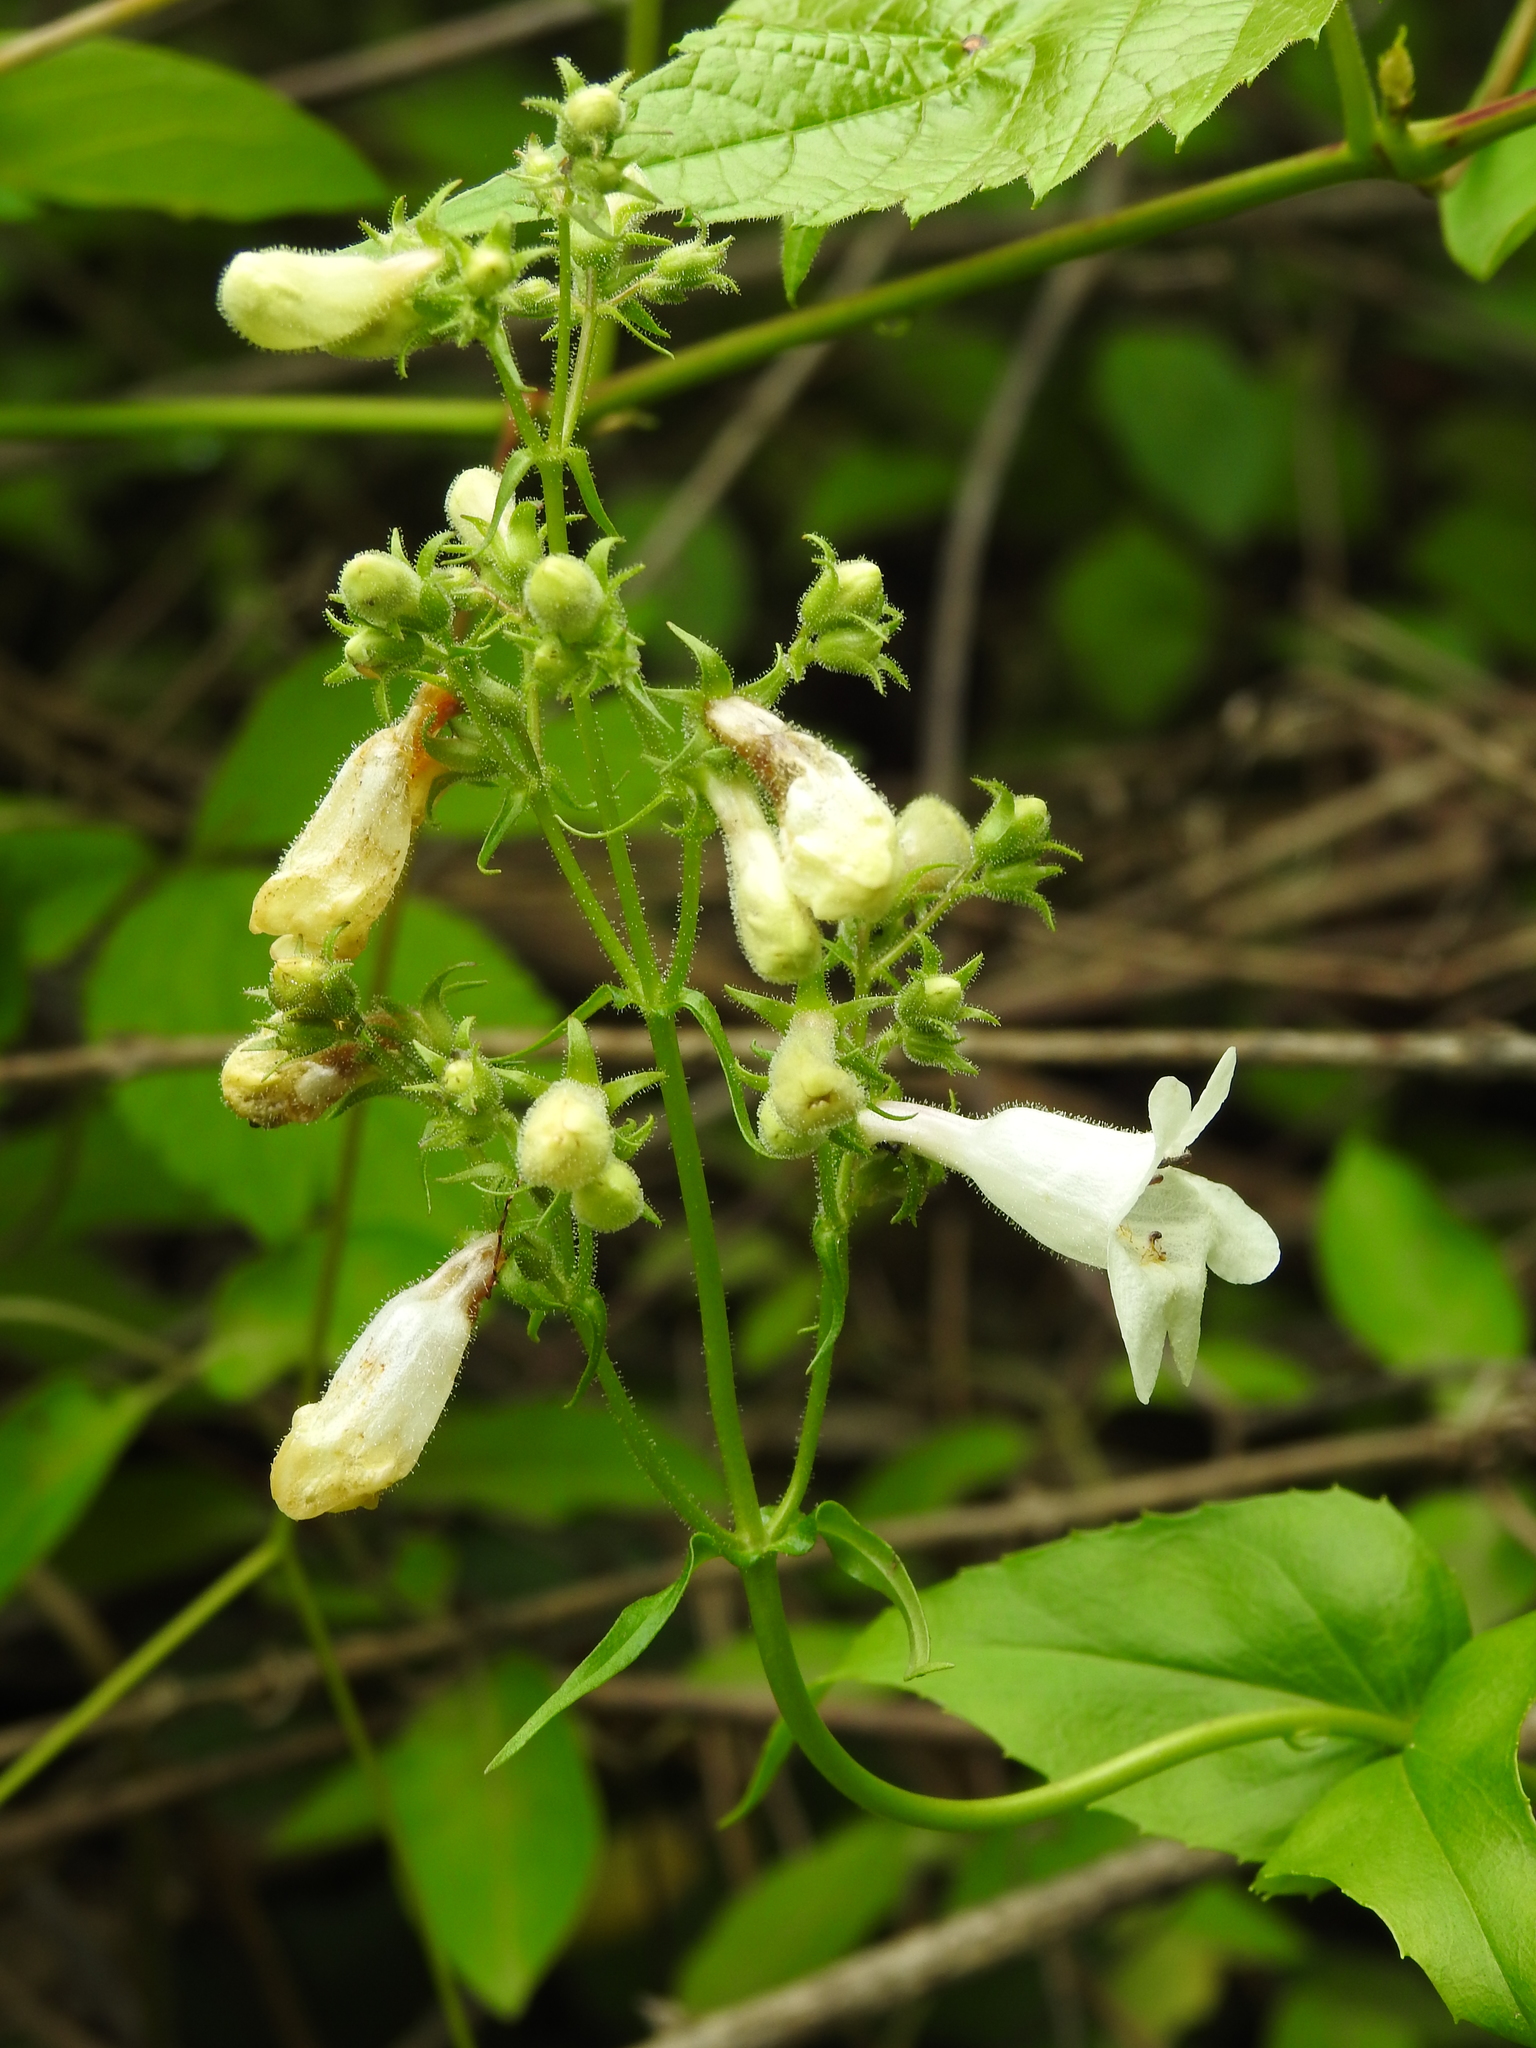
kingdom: Plantae
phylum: Tracheophyta
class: Magnoliopsida
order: Lamiales
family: Plantaginaceae
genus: Penstemon
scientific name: Penstemon digitalis
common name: Foxglove beardtongue
